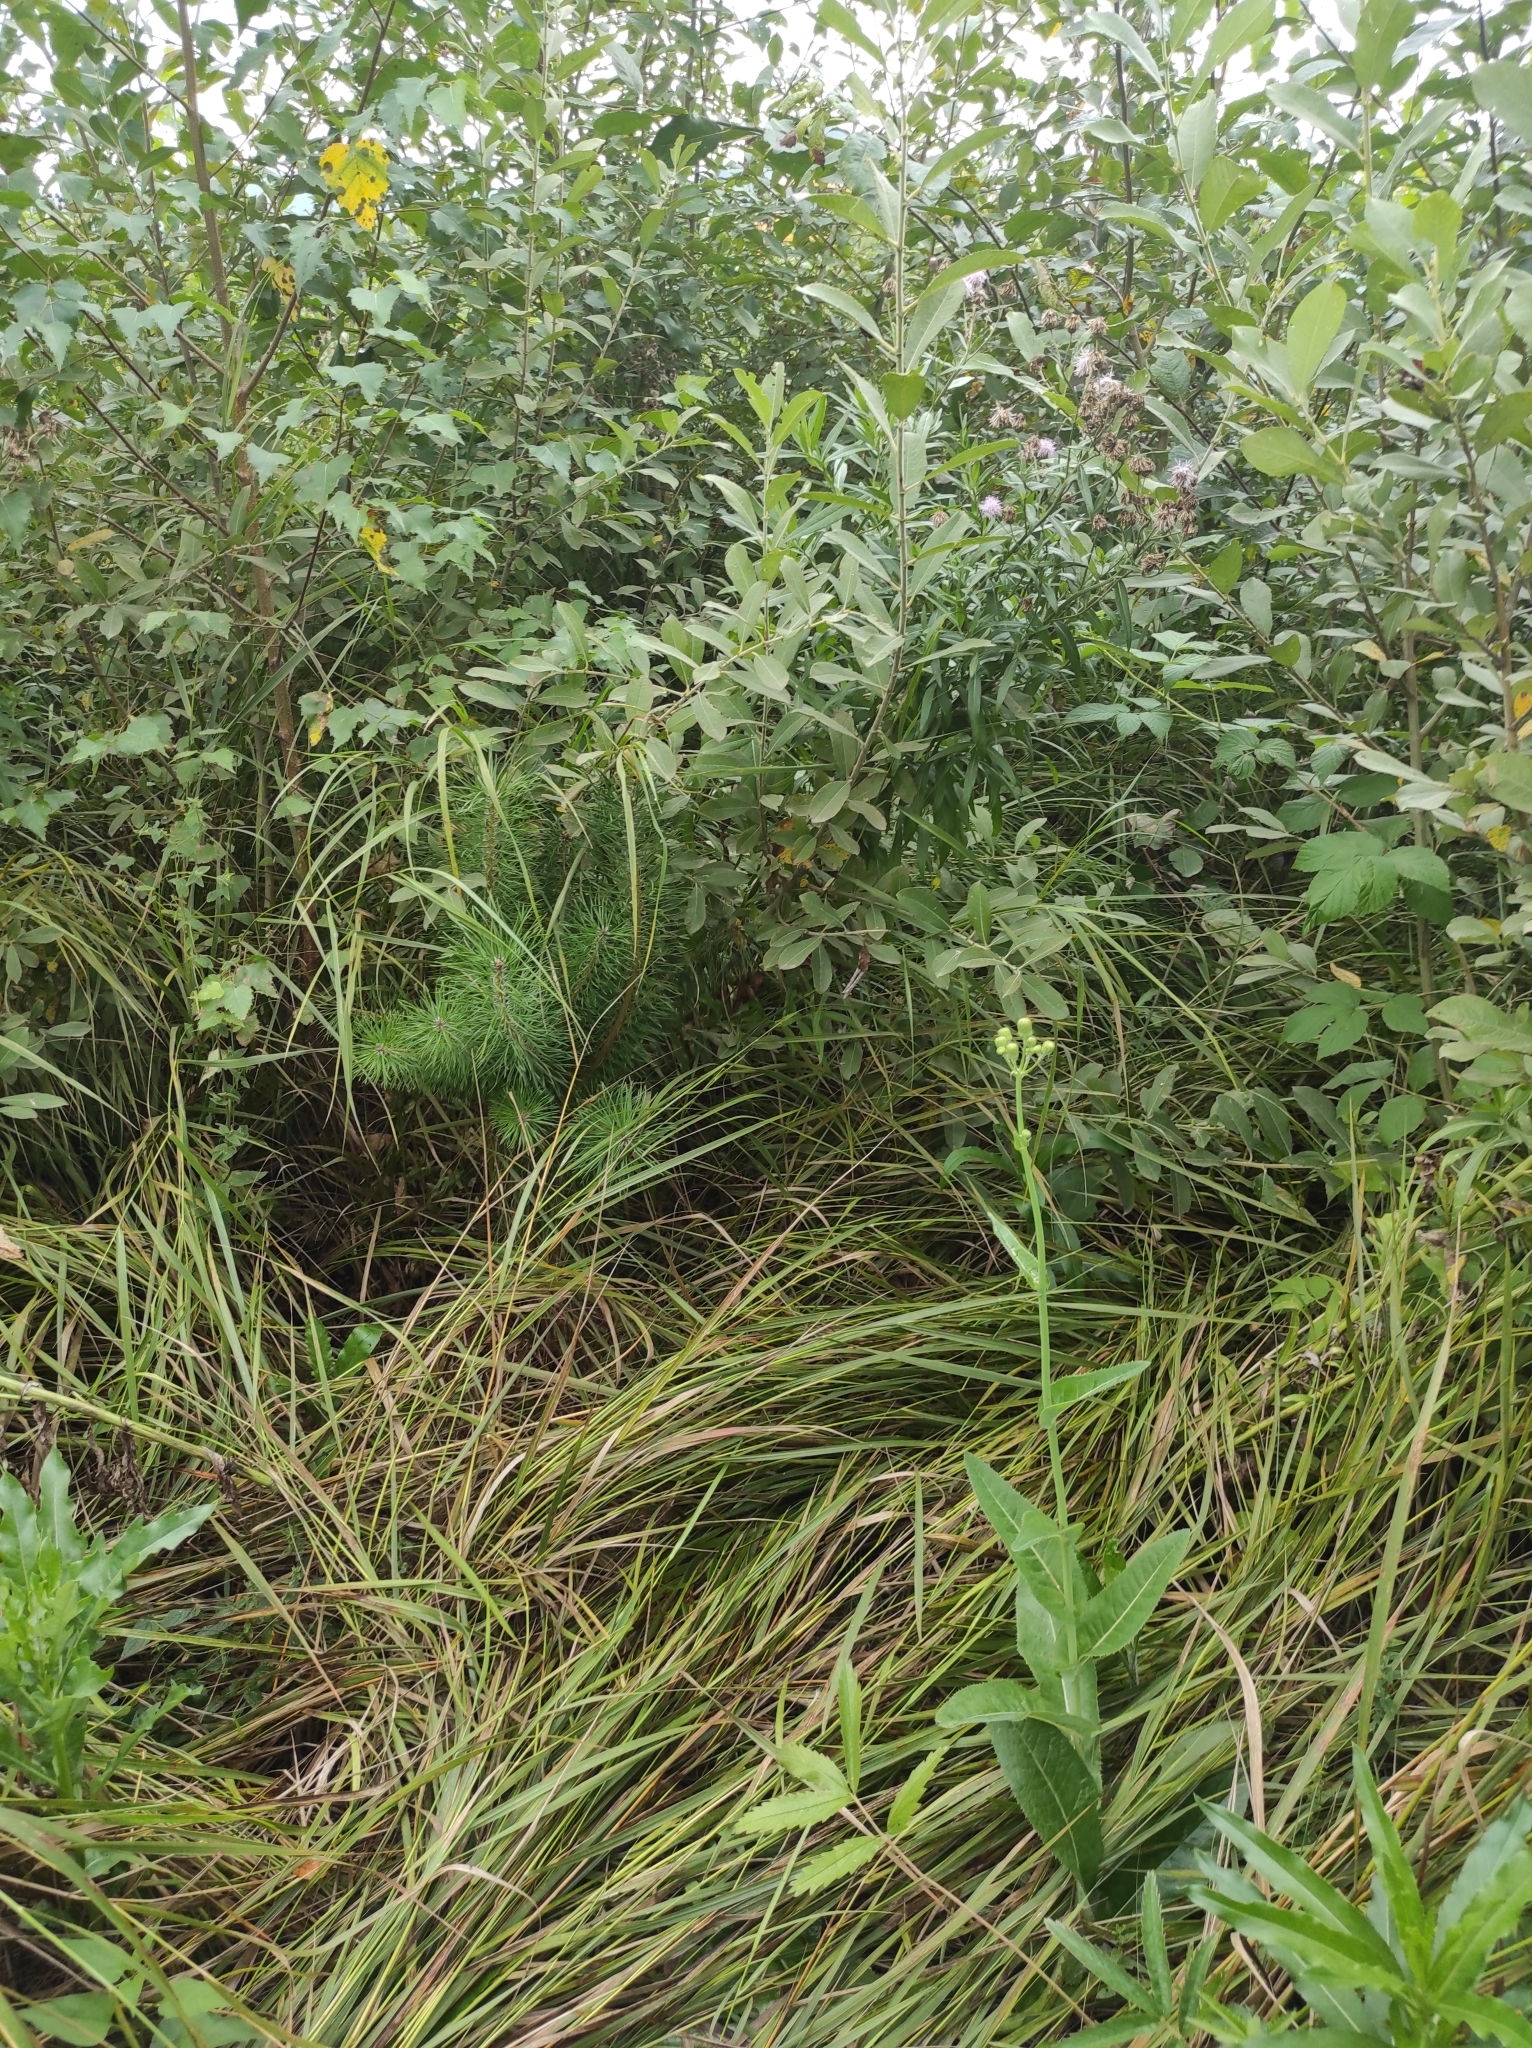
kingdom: Plantae
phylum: Tracheophyta
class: Pinopsida
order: Pinales
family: Pinaceae
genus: Pinus
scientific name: Pinus sylvestris
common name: Scots pine
